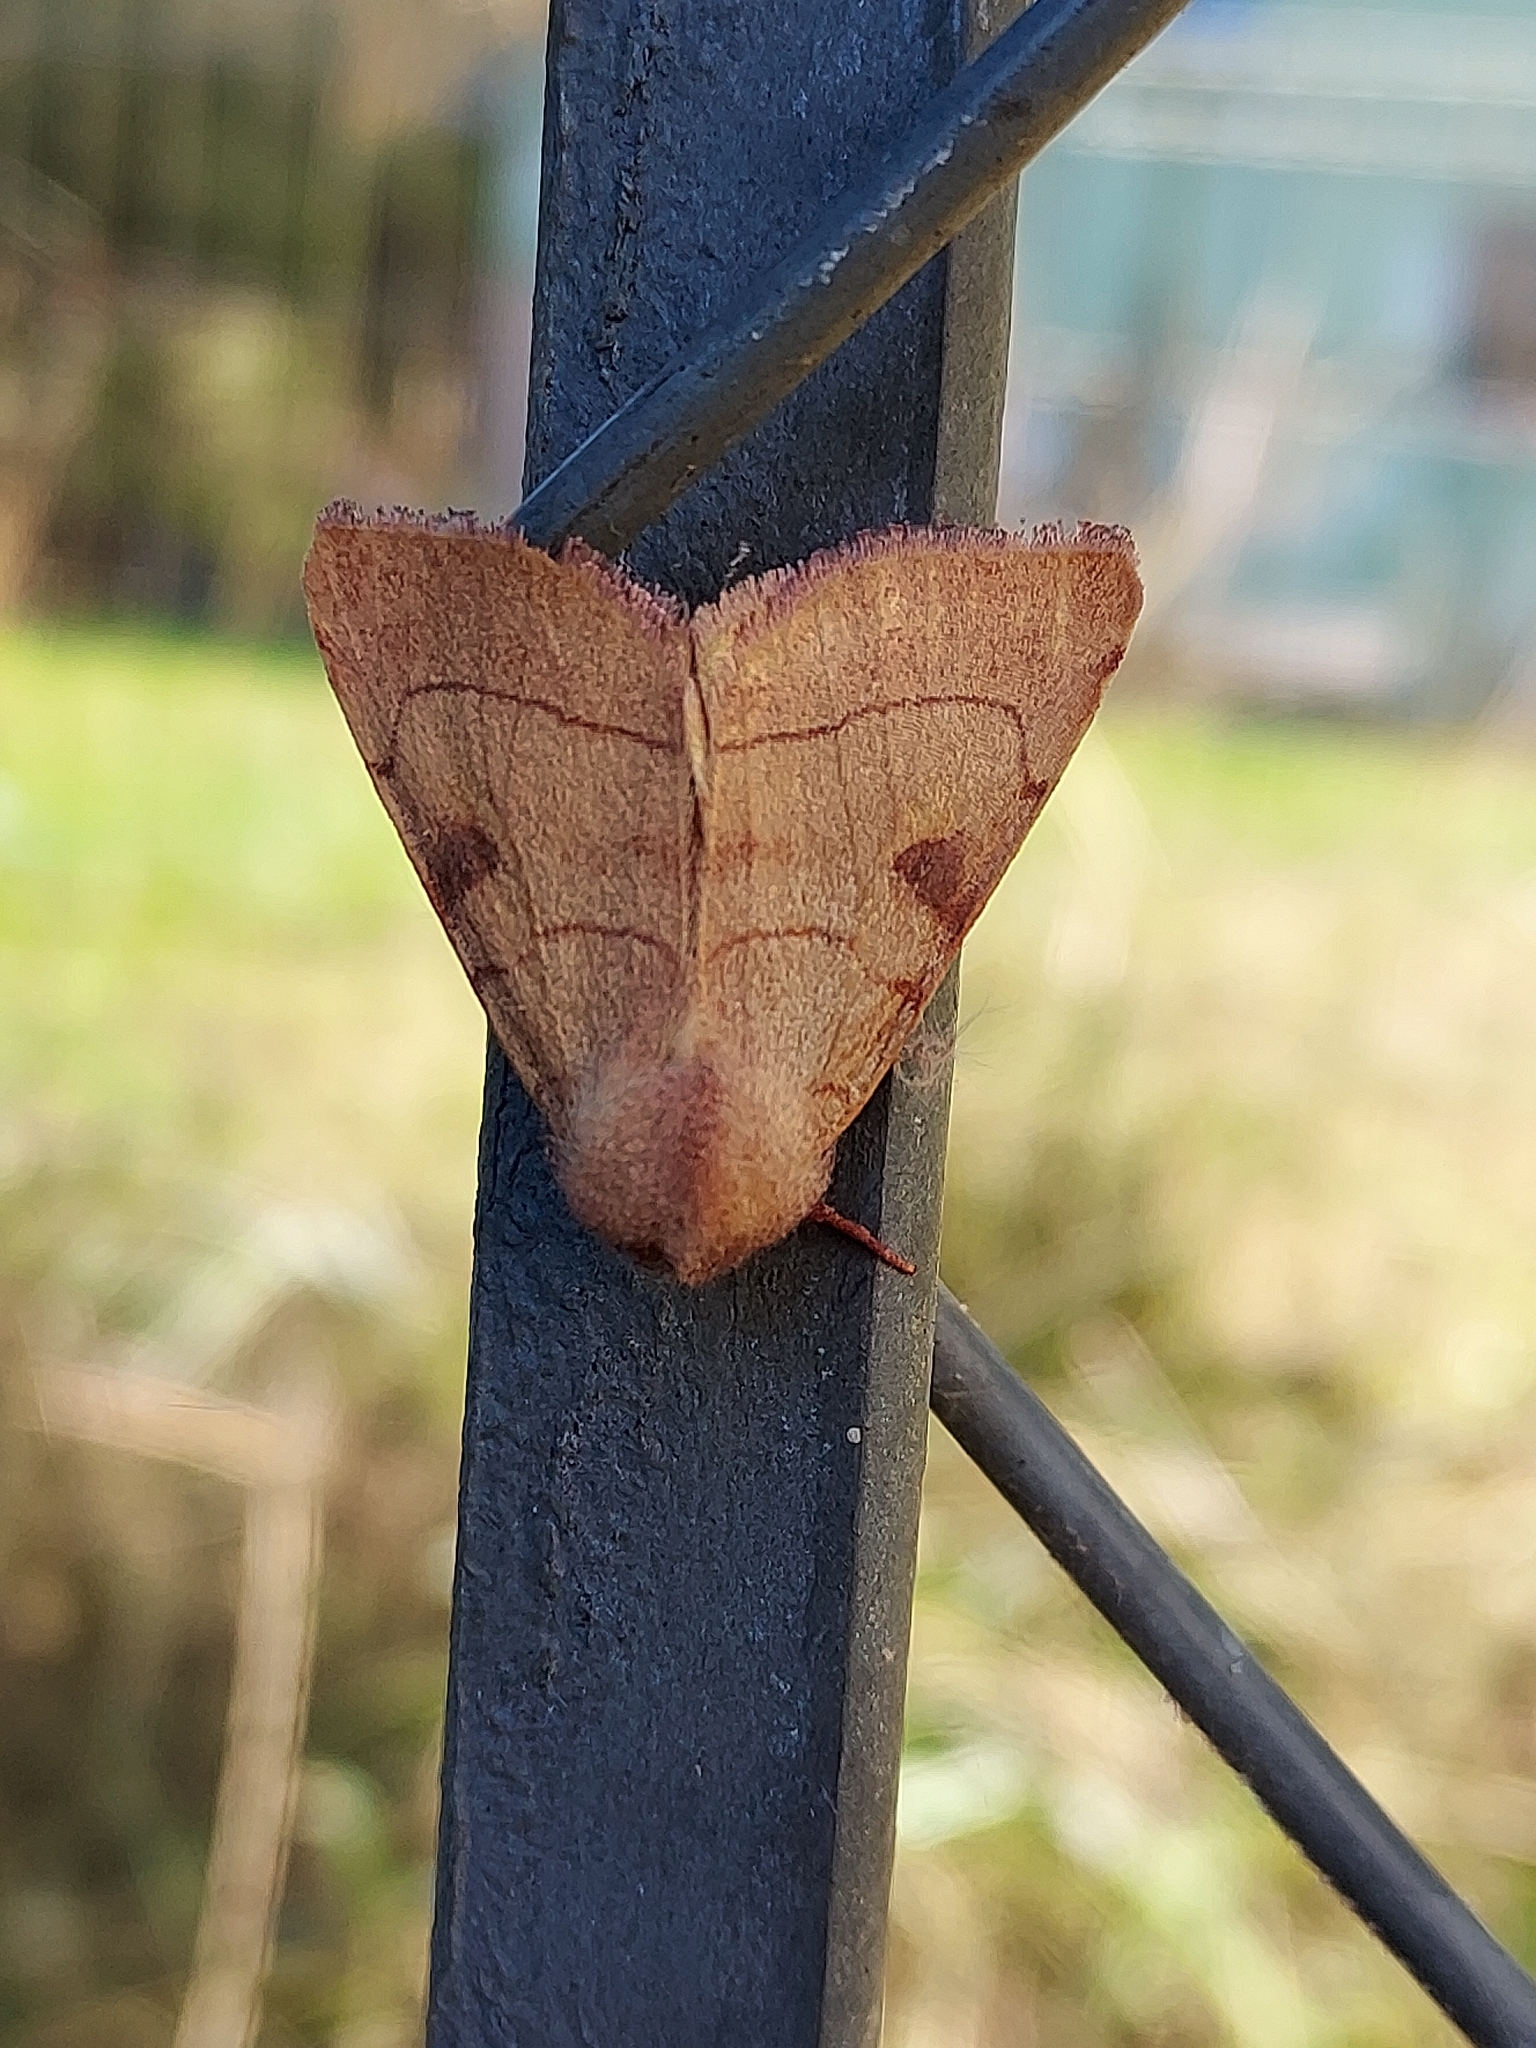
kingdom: Animalia
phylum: Arthropoda
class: Insecta
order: Lepidoptera
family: Noctuidae
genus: Choephora
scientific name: Choephora fungorum
